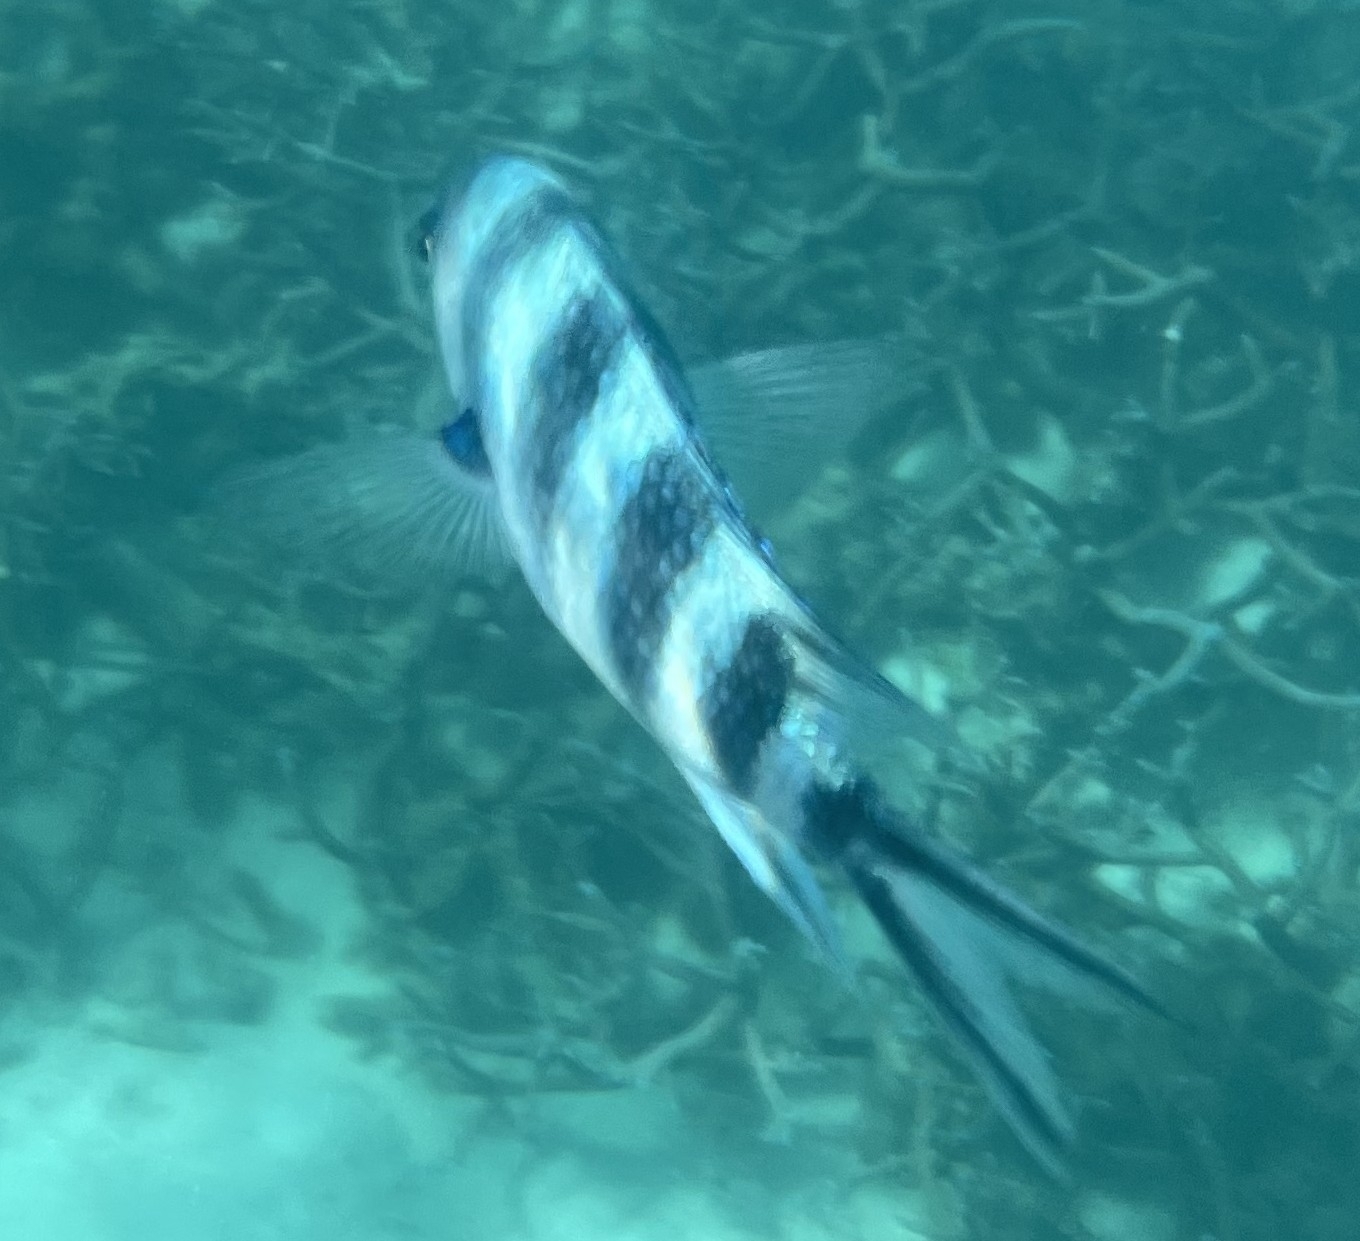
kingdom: Animalia
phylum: Chordata
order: Perciformes
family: Pomacentridae
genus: Abudefduf
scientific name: Abudefduf sexfasciatus
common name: Scissortail sergeant
